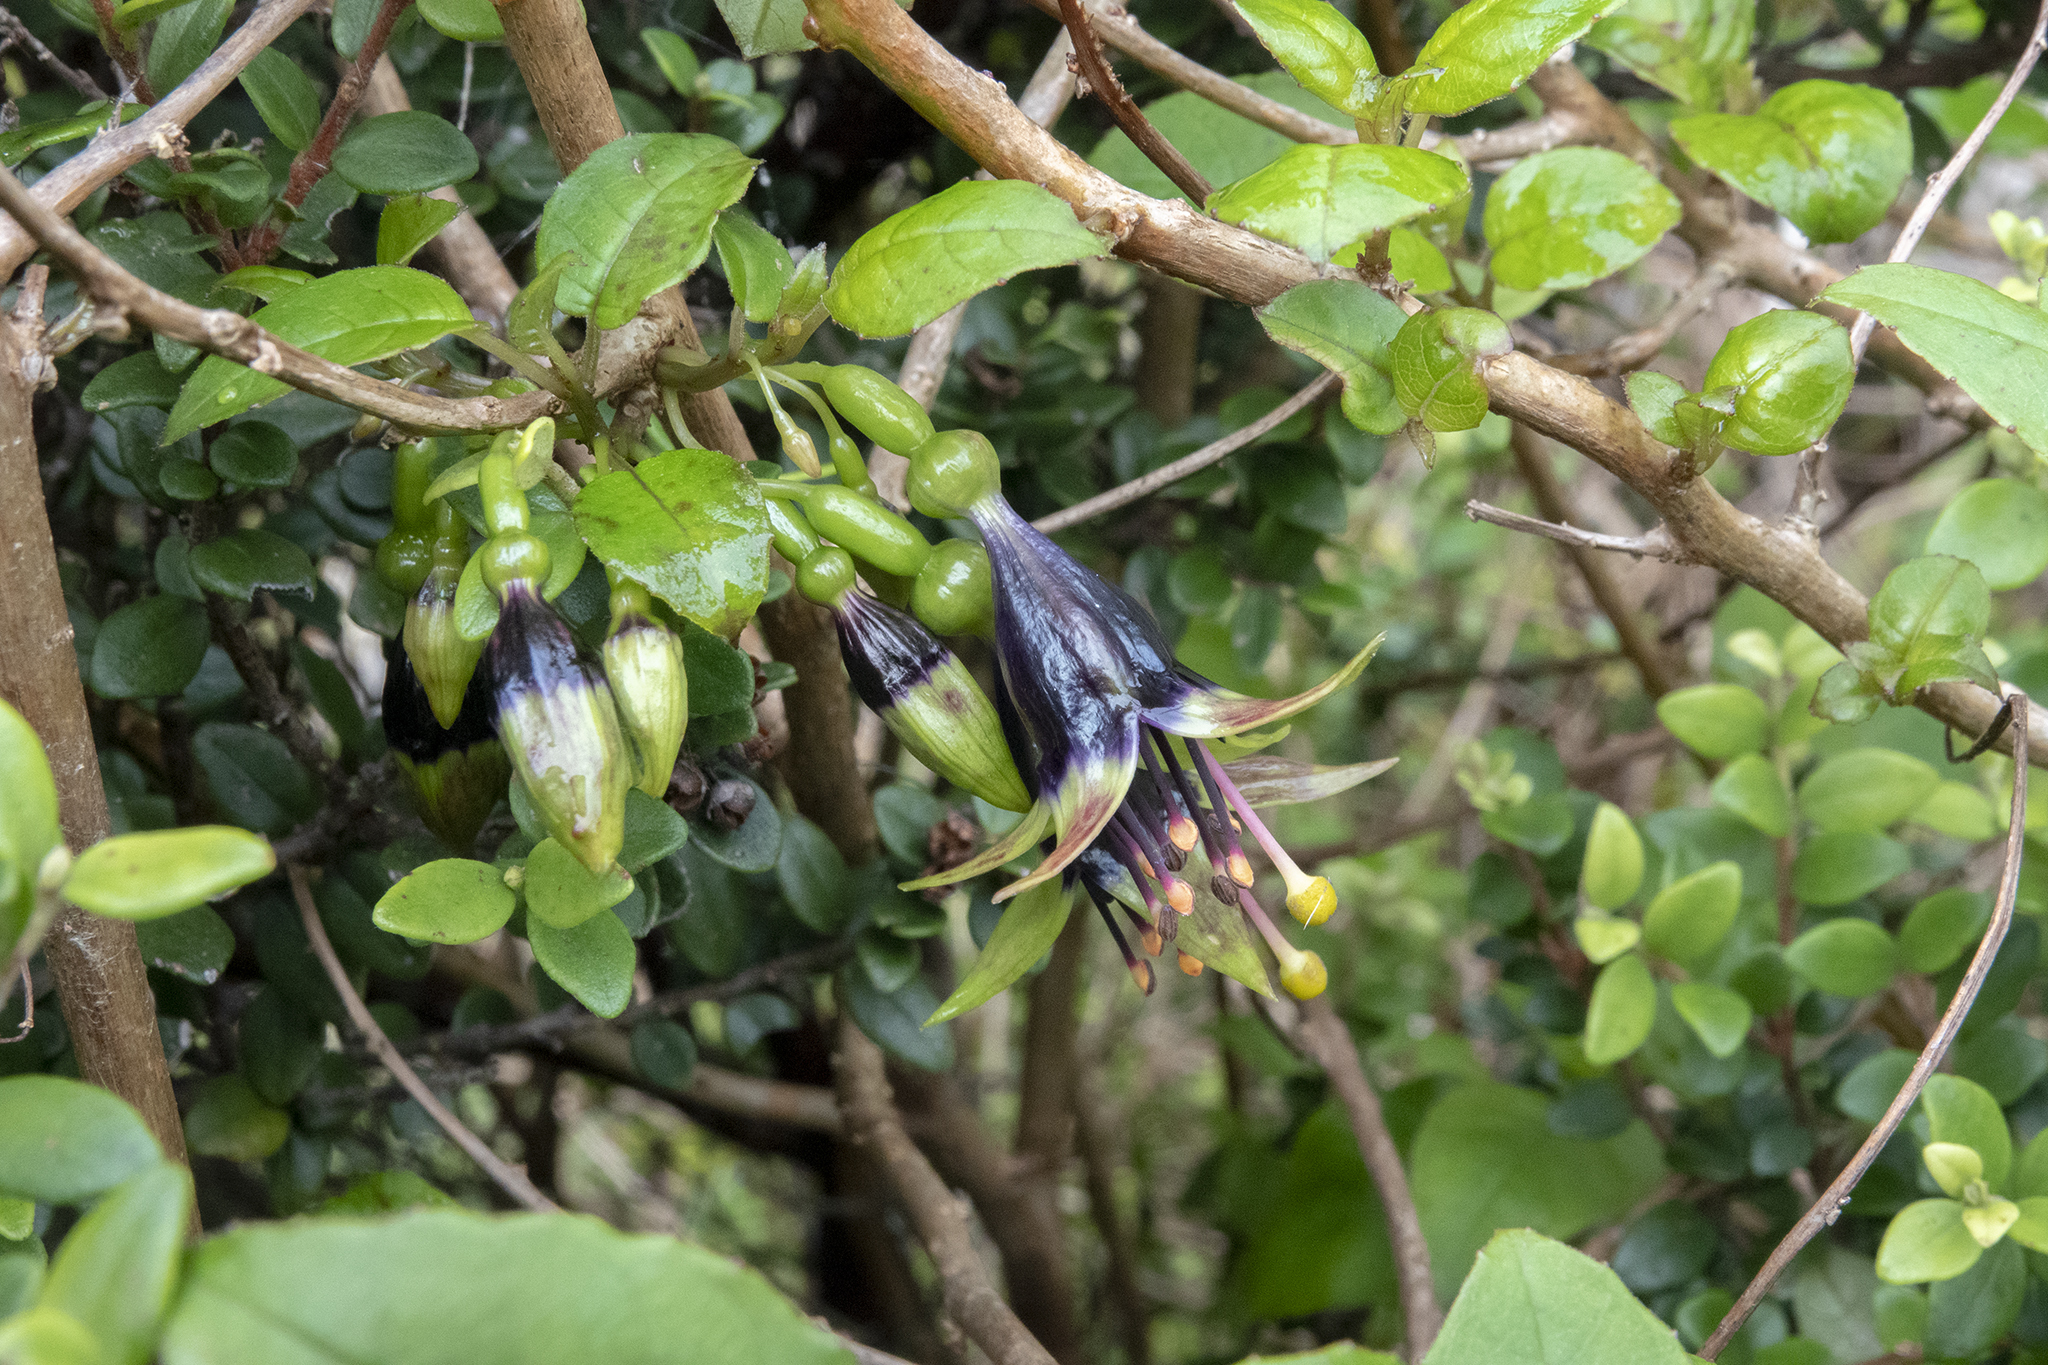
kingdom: Plantae
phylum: Tracheophyta
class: Magnoliopsida
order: Myrtales
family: Onagraceae
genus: Fuchsia
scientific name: Fuchsia colensoi
